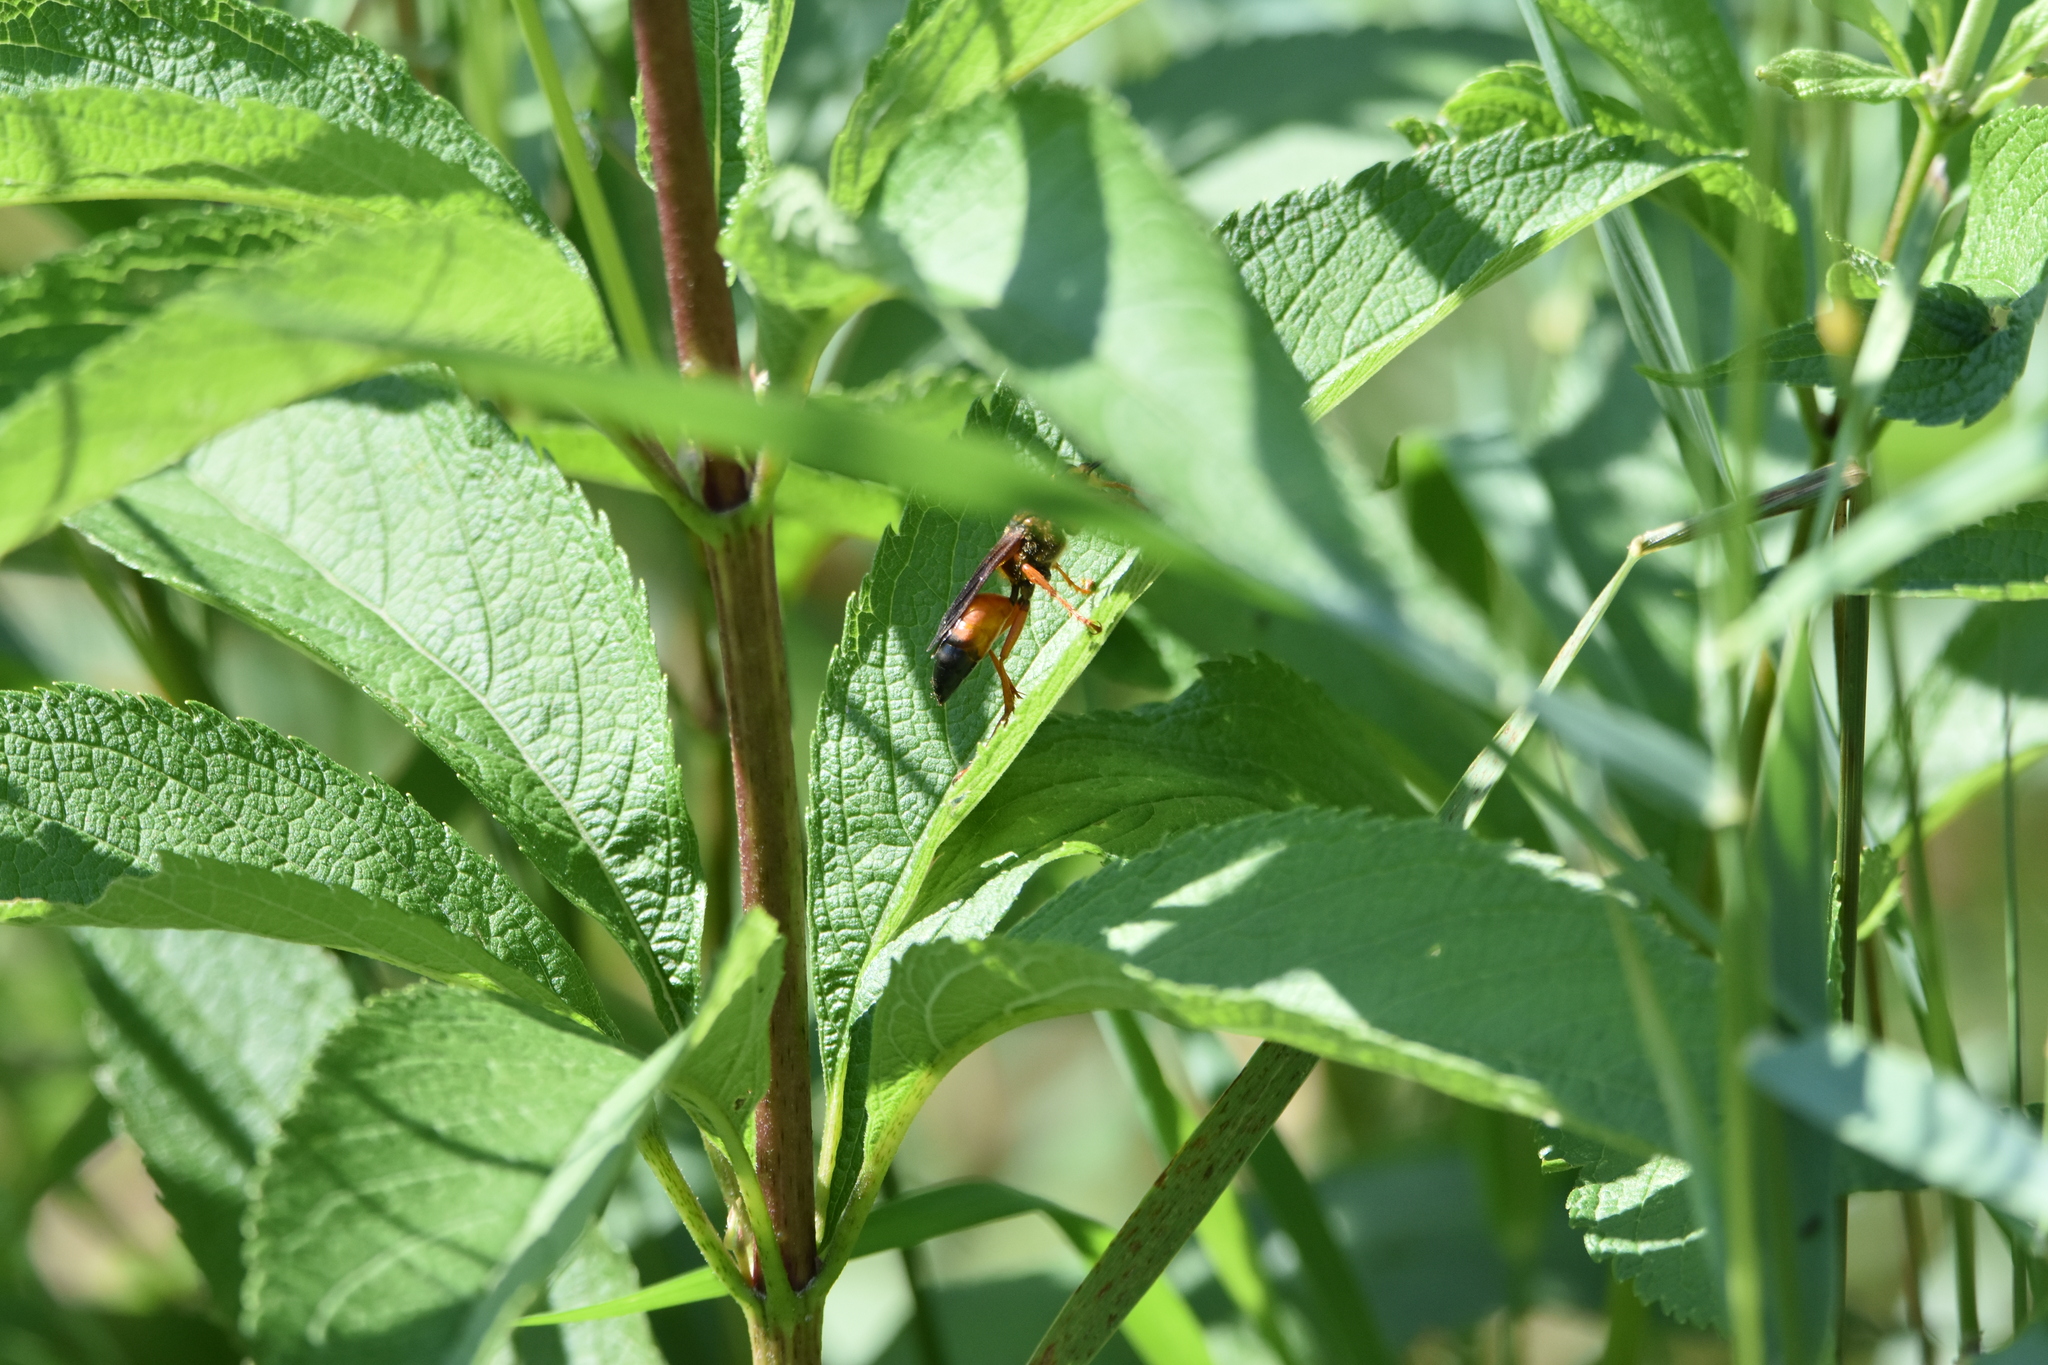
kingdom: Animalia
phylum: Arthropoda
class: Insecta
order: Hymenoptera
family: Sphecidae
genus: Sphex
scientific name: Sphex ichneumoneus
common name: Great golden digger wasp
